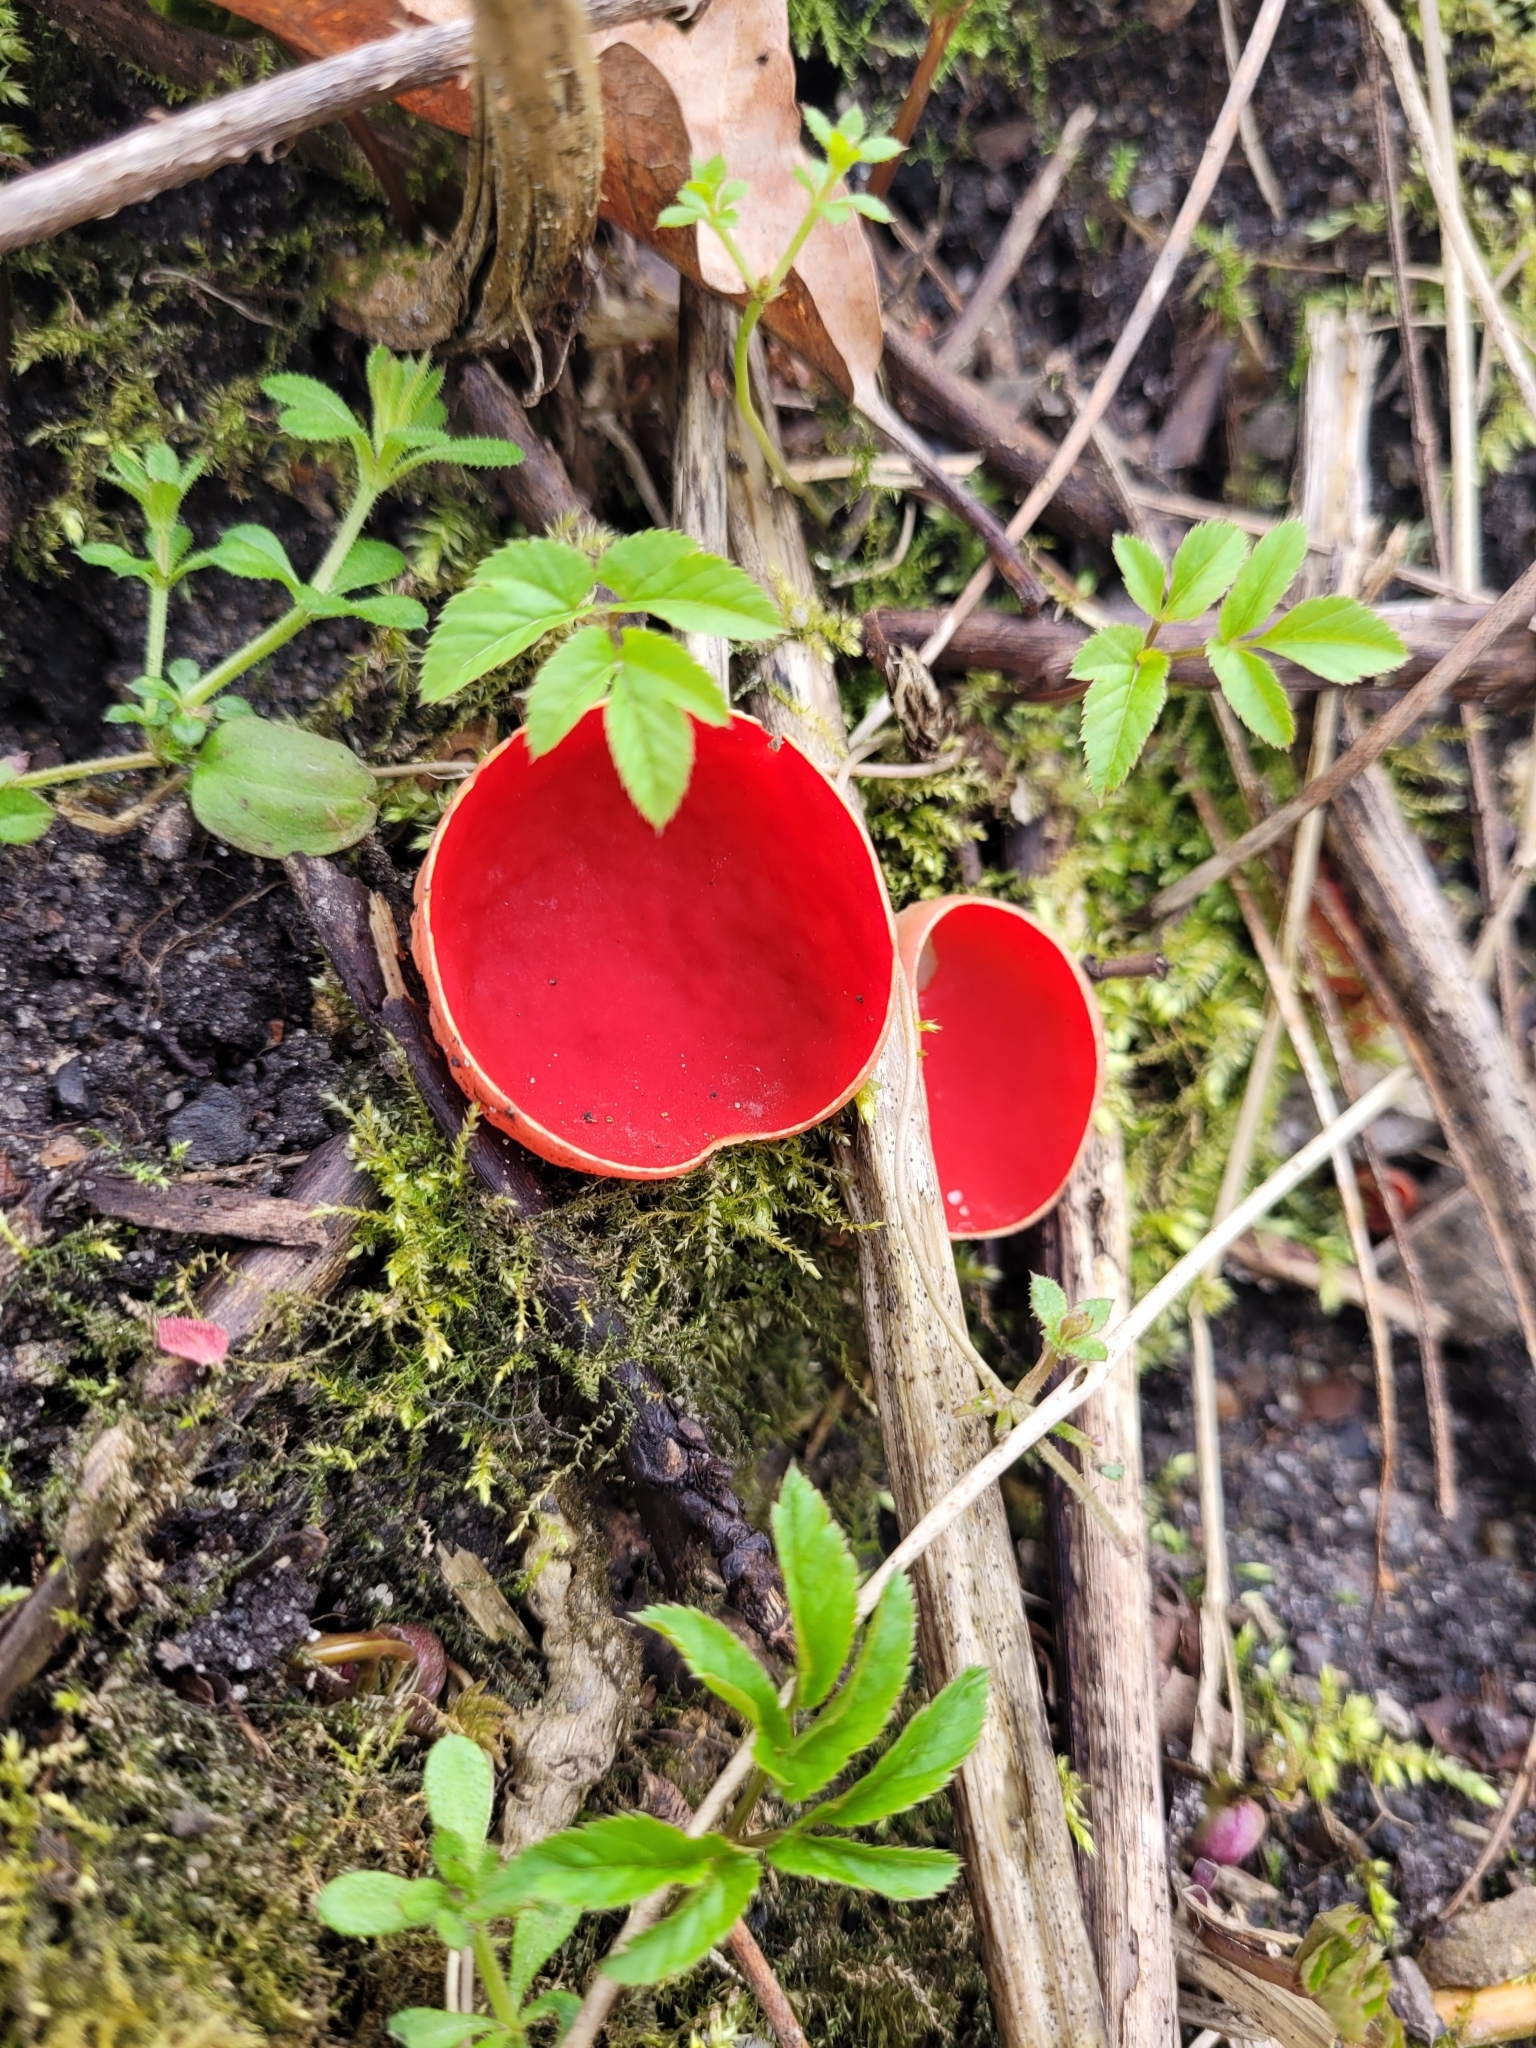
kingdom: Fungi
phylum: Ascomycota
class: Pezizomycetes
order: Pezizales
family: Sarcoscyphaceae
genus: Sarcoscypha
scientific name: Sarcoscypha
